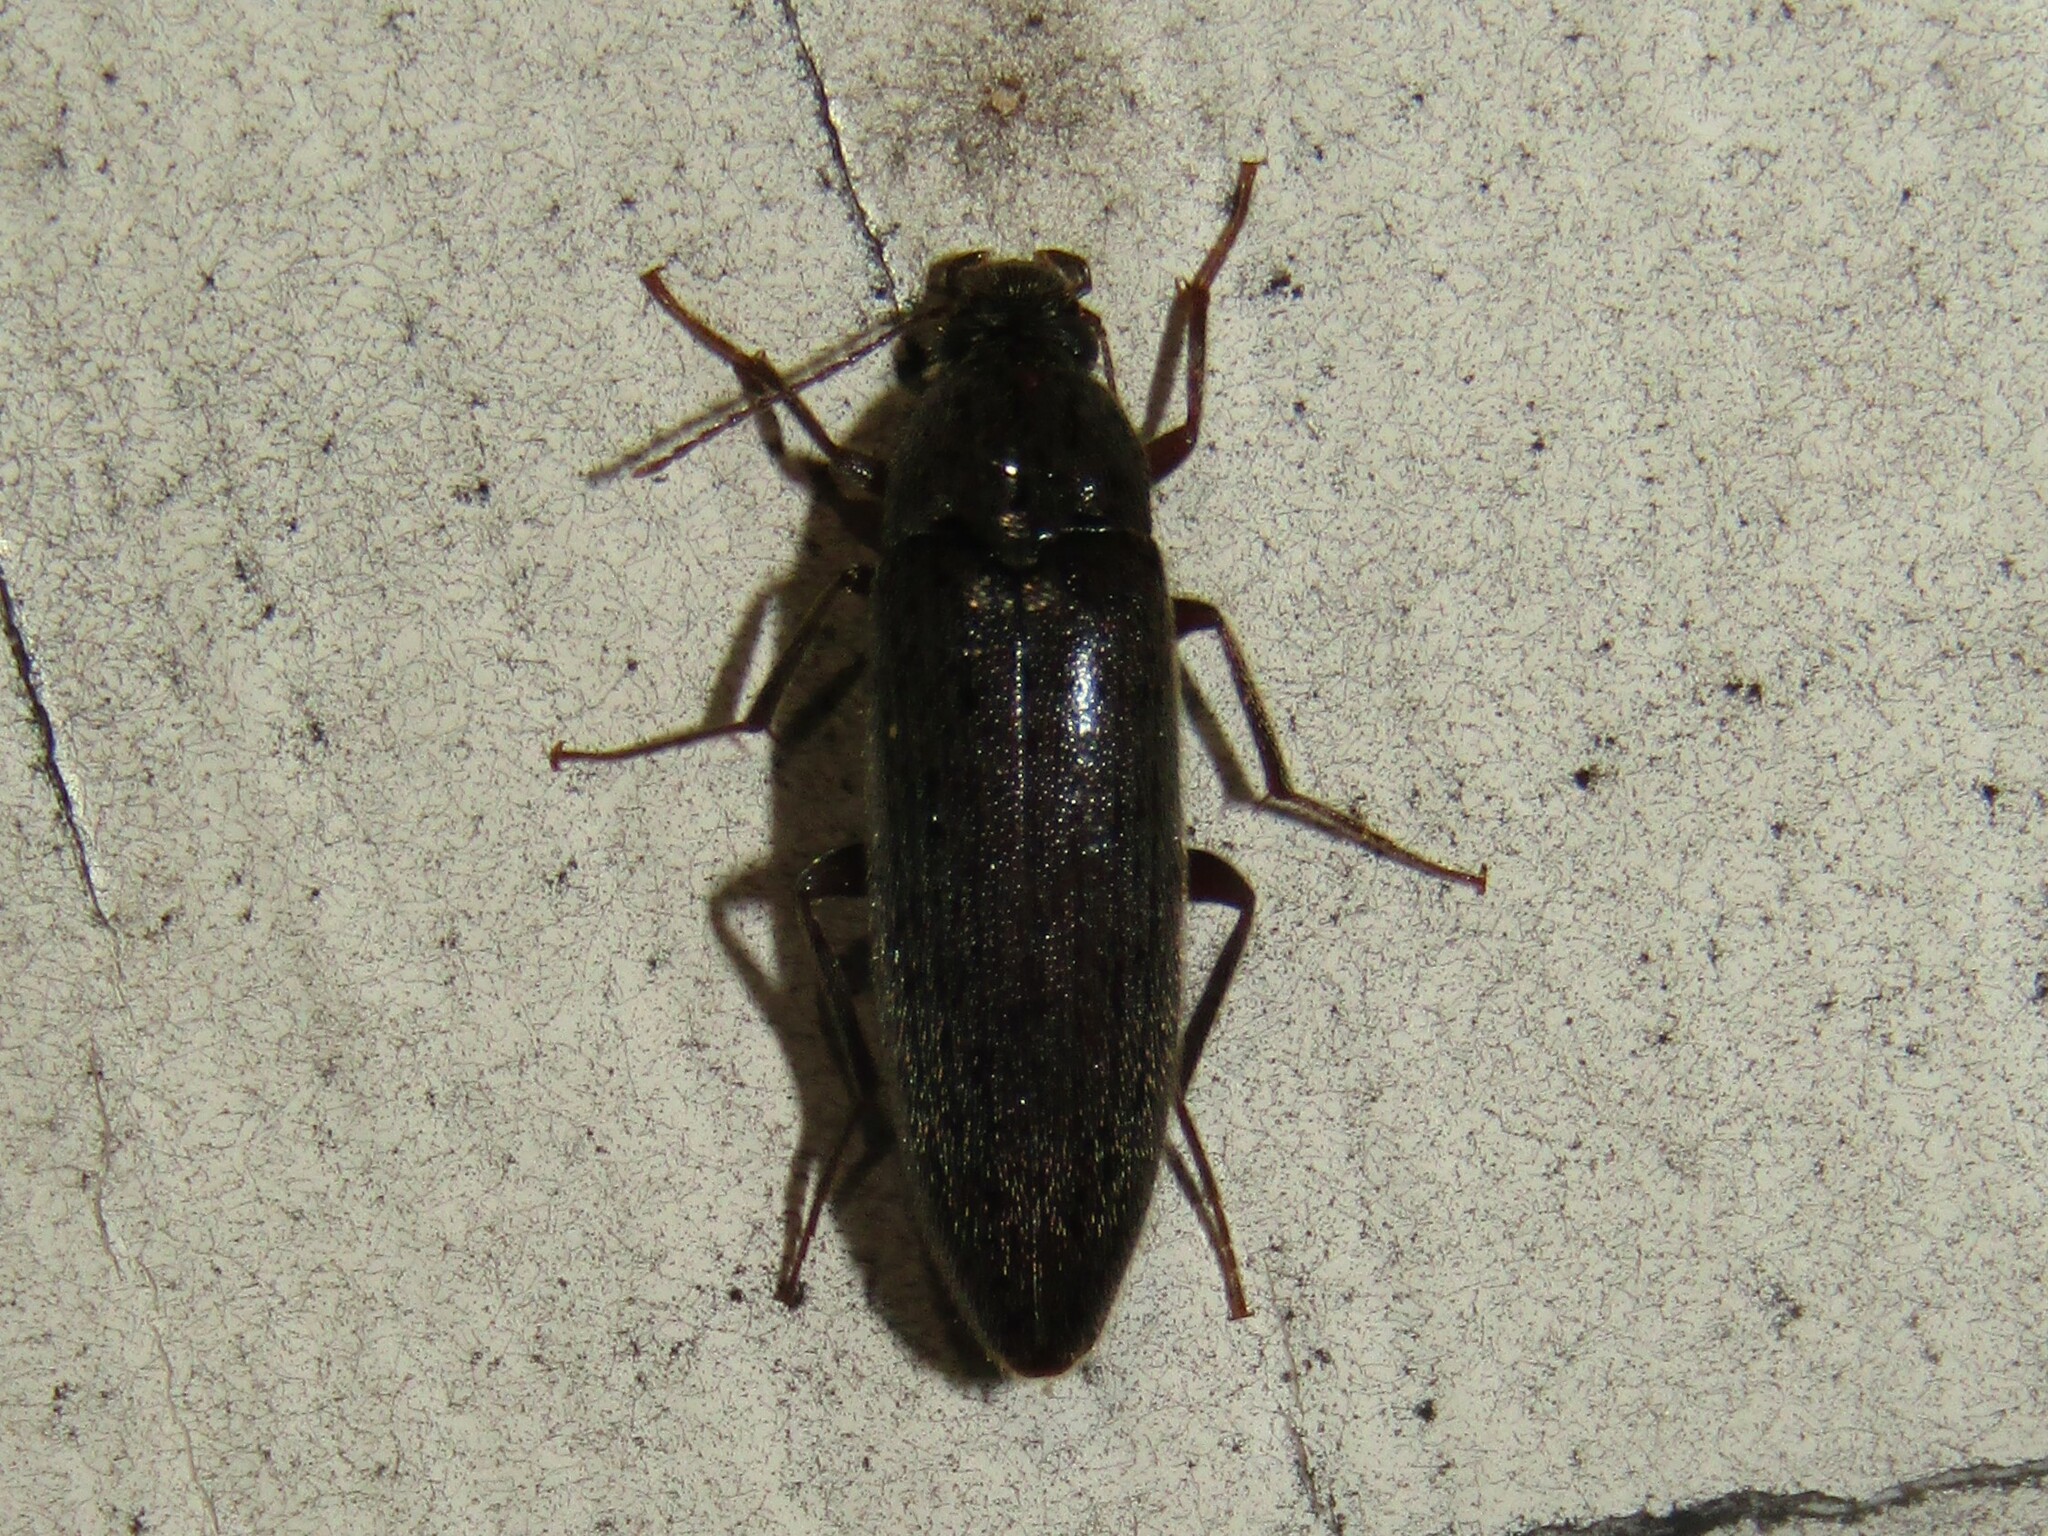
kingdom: Animalia
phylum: Arthropoda
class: Insecta
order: Coleoptera
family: Synchroidae
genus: Synchroa
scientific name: Synchroa punctata
